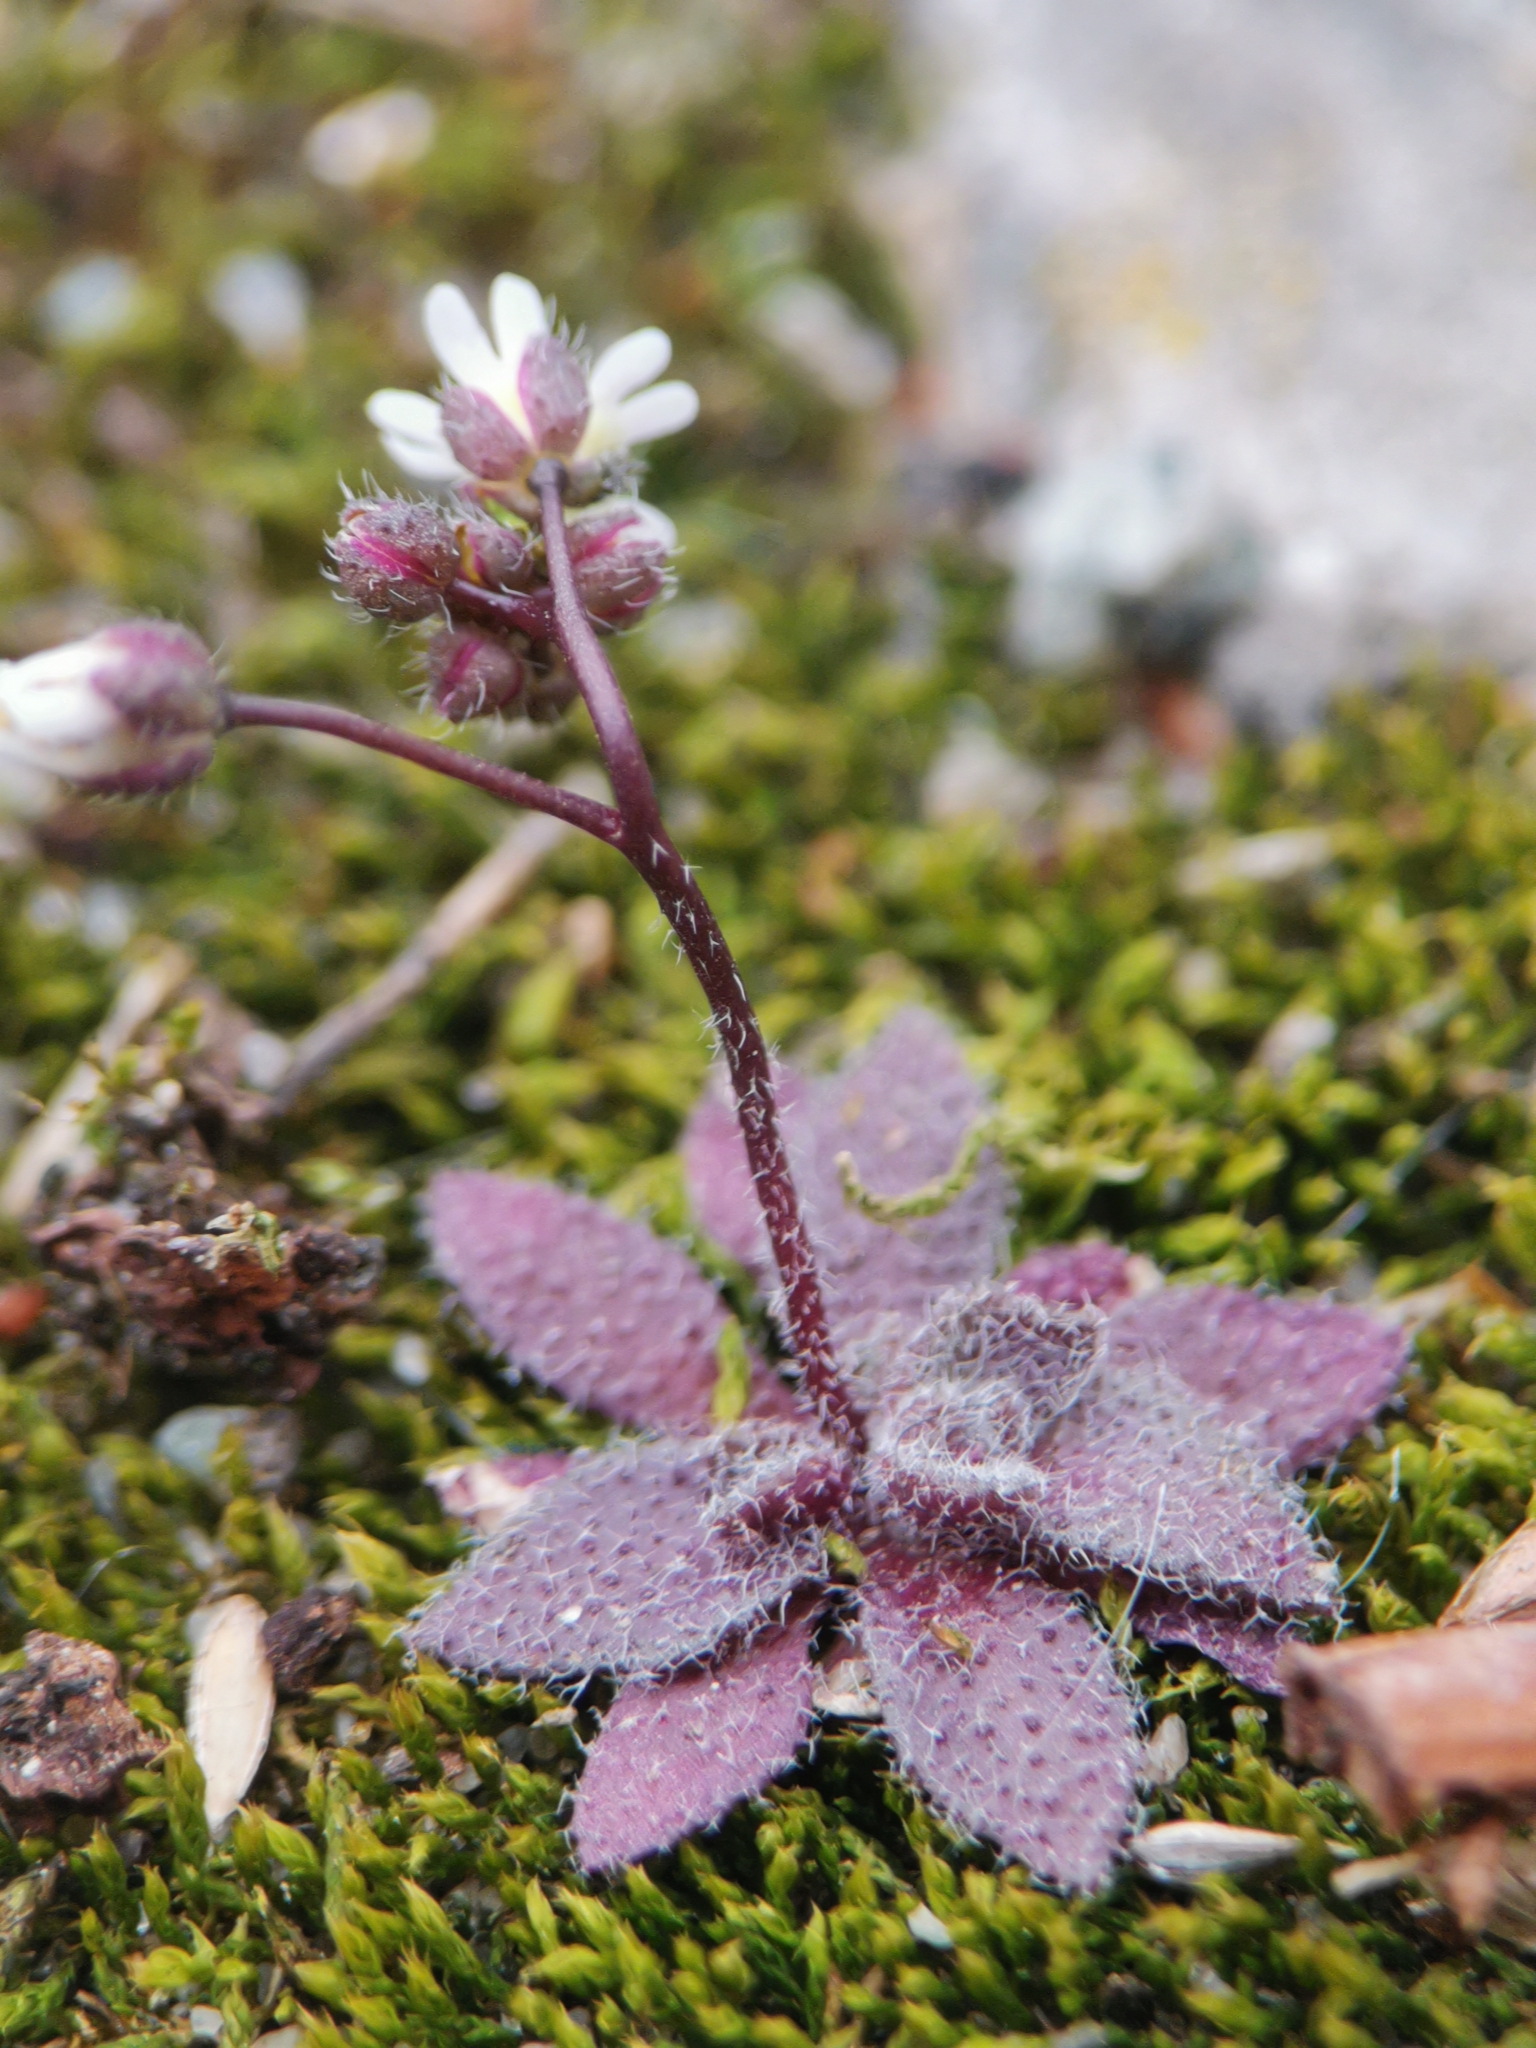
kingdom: Plantae
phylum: Tracheophyta
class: Magnoliopsida
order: Brassicales
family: Brassicaceae
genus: Draba
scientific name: Draba verna
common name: Spring draba
